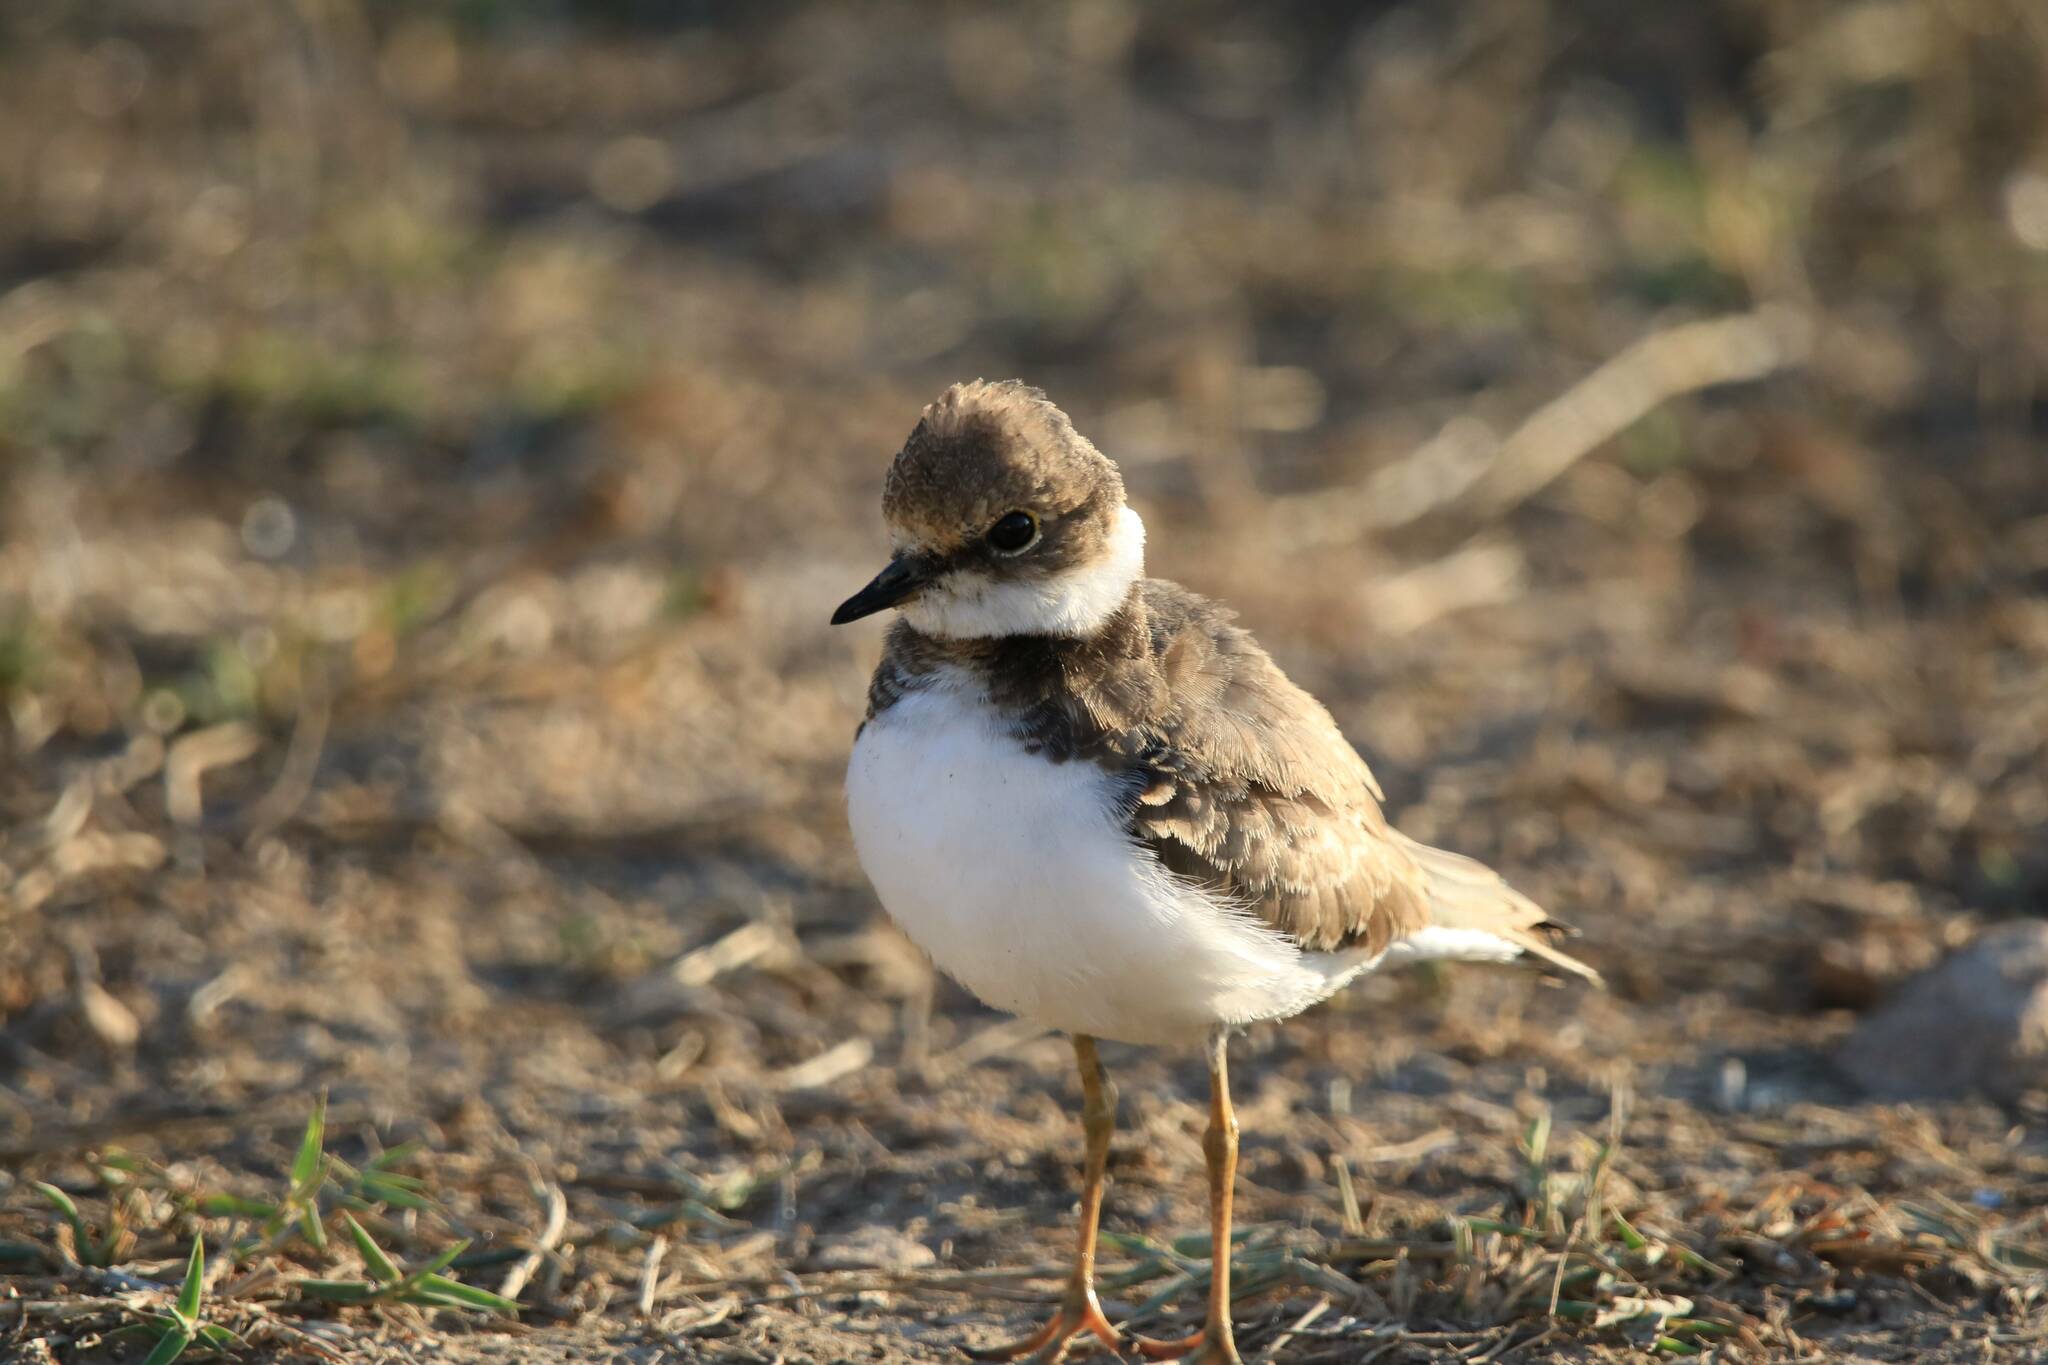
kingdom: Animalia
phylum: Chordata
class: Aves
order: Charadriiformes
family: Charadriidae
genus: Charadrius
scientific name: Charadrius dubius
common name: Little ringed plover
